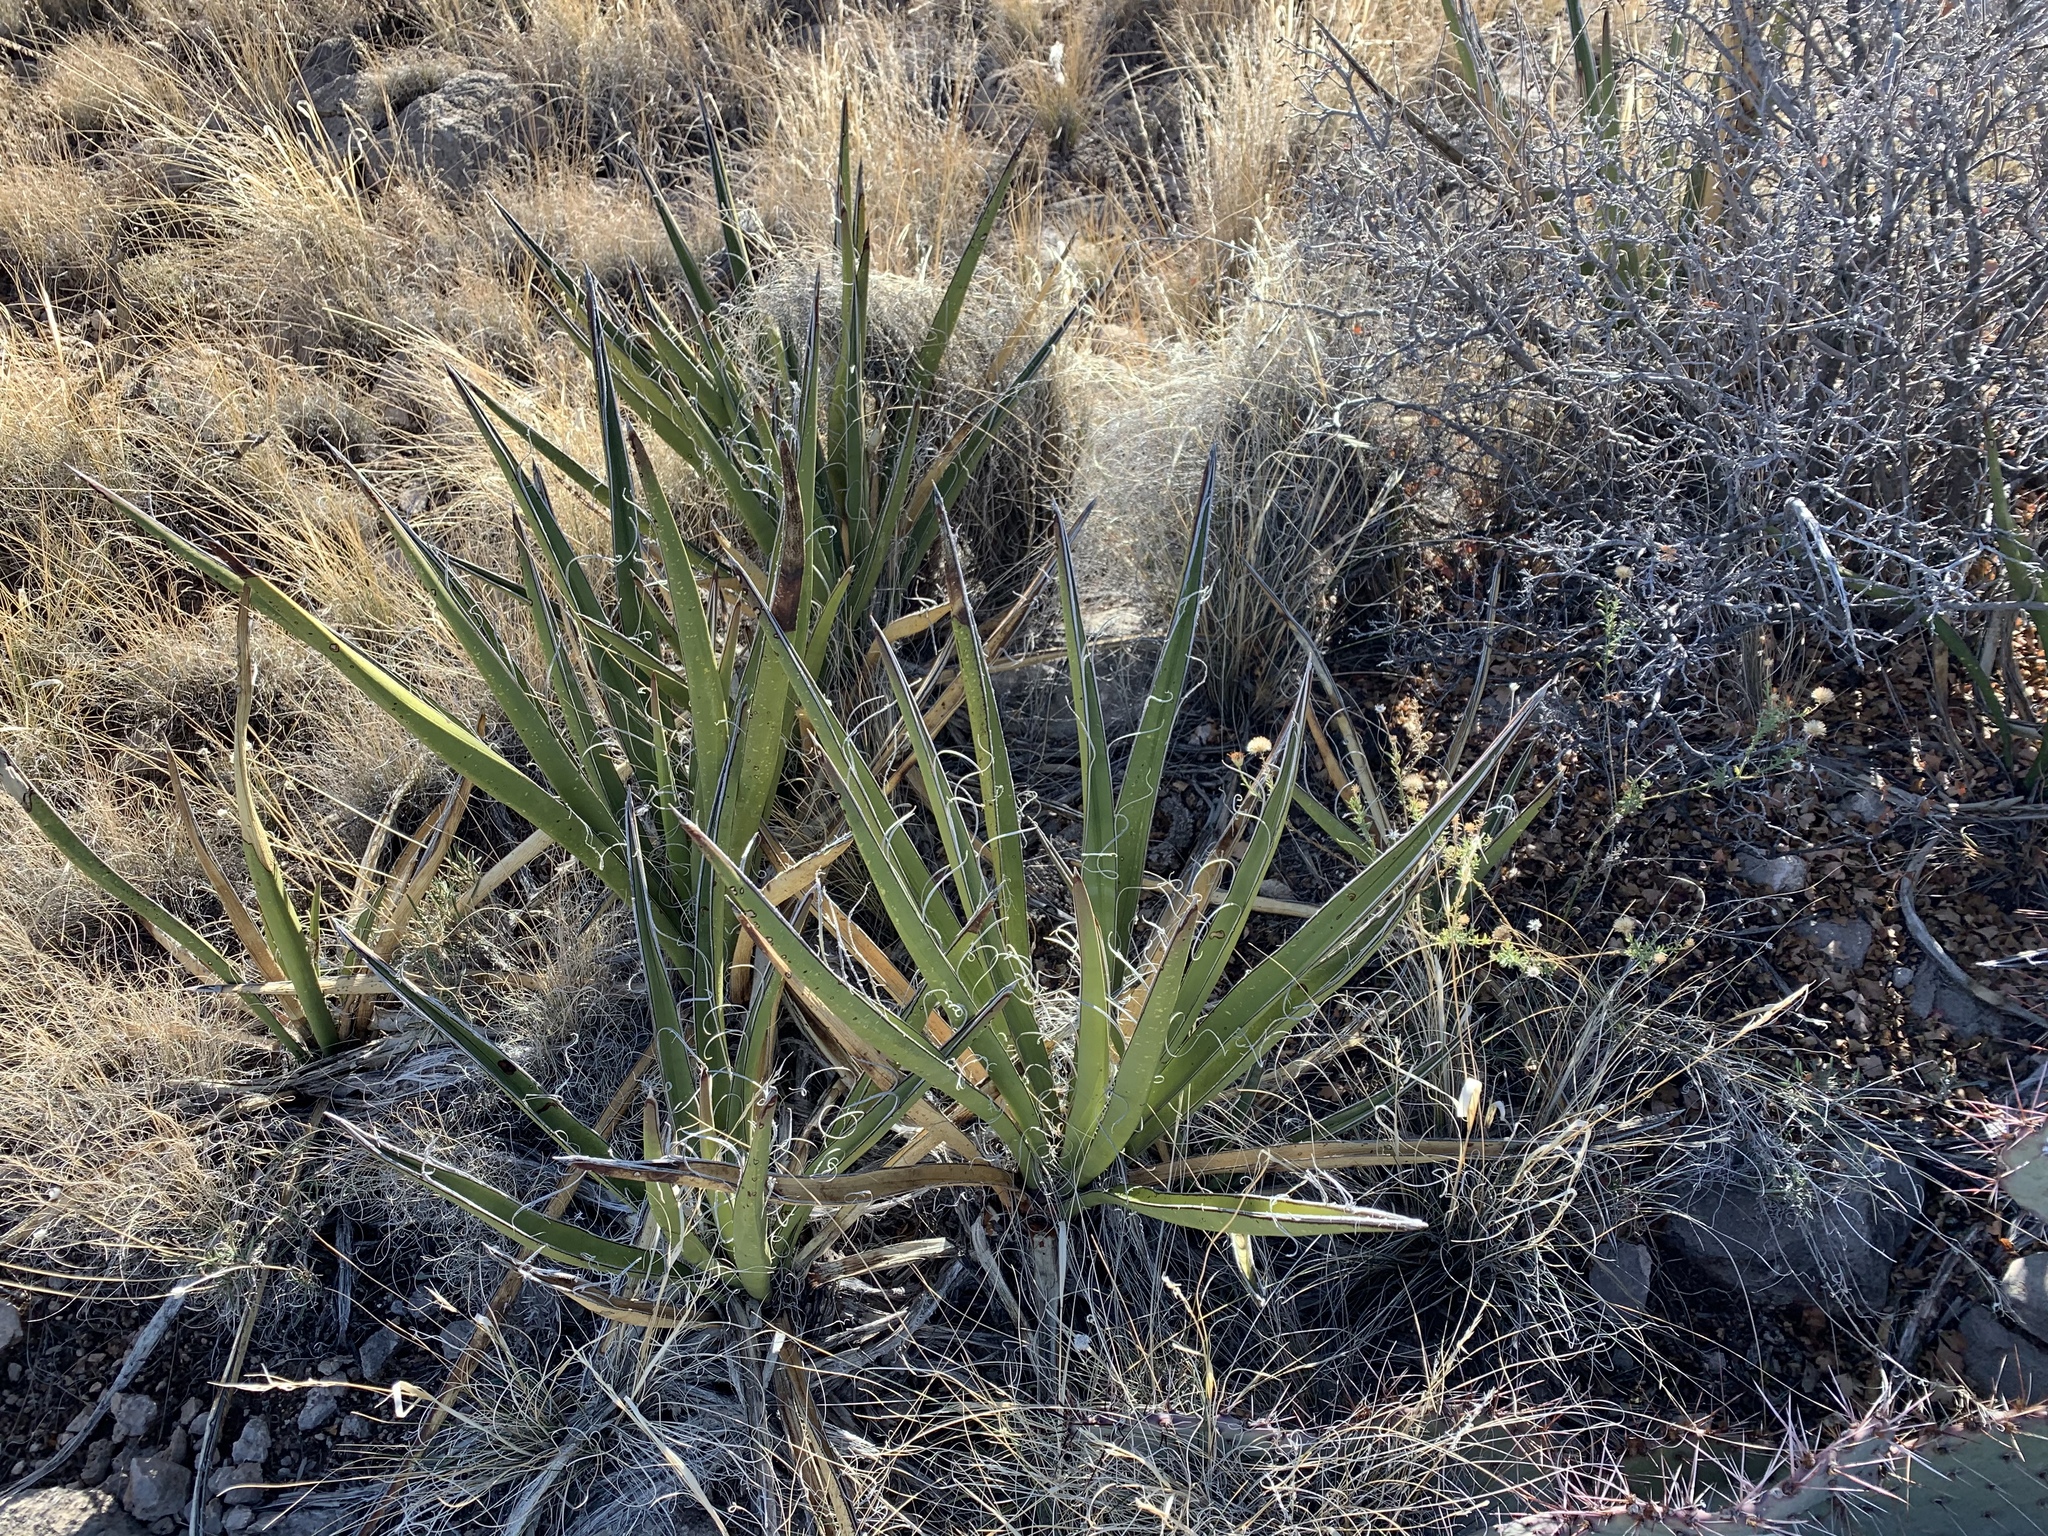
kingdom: Plantae
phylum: Tracheophyta
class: Liliopsida
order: Asparagales
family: Asparagaceae
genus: Yucca
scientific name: Yucca baccata
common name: Banana yucca
